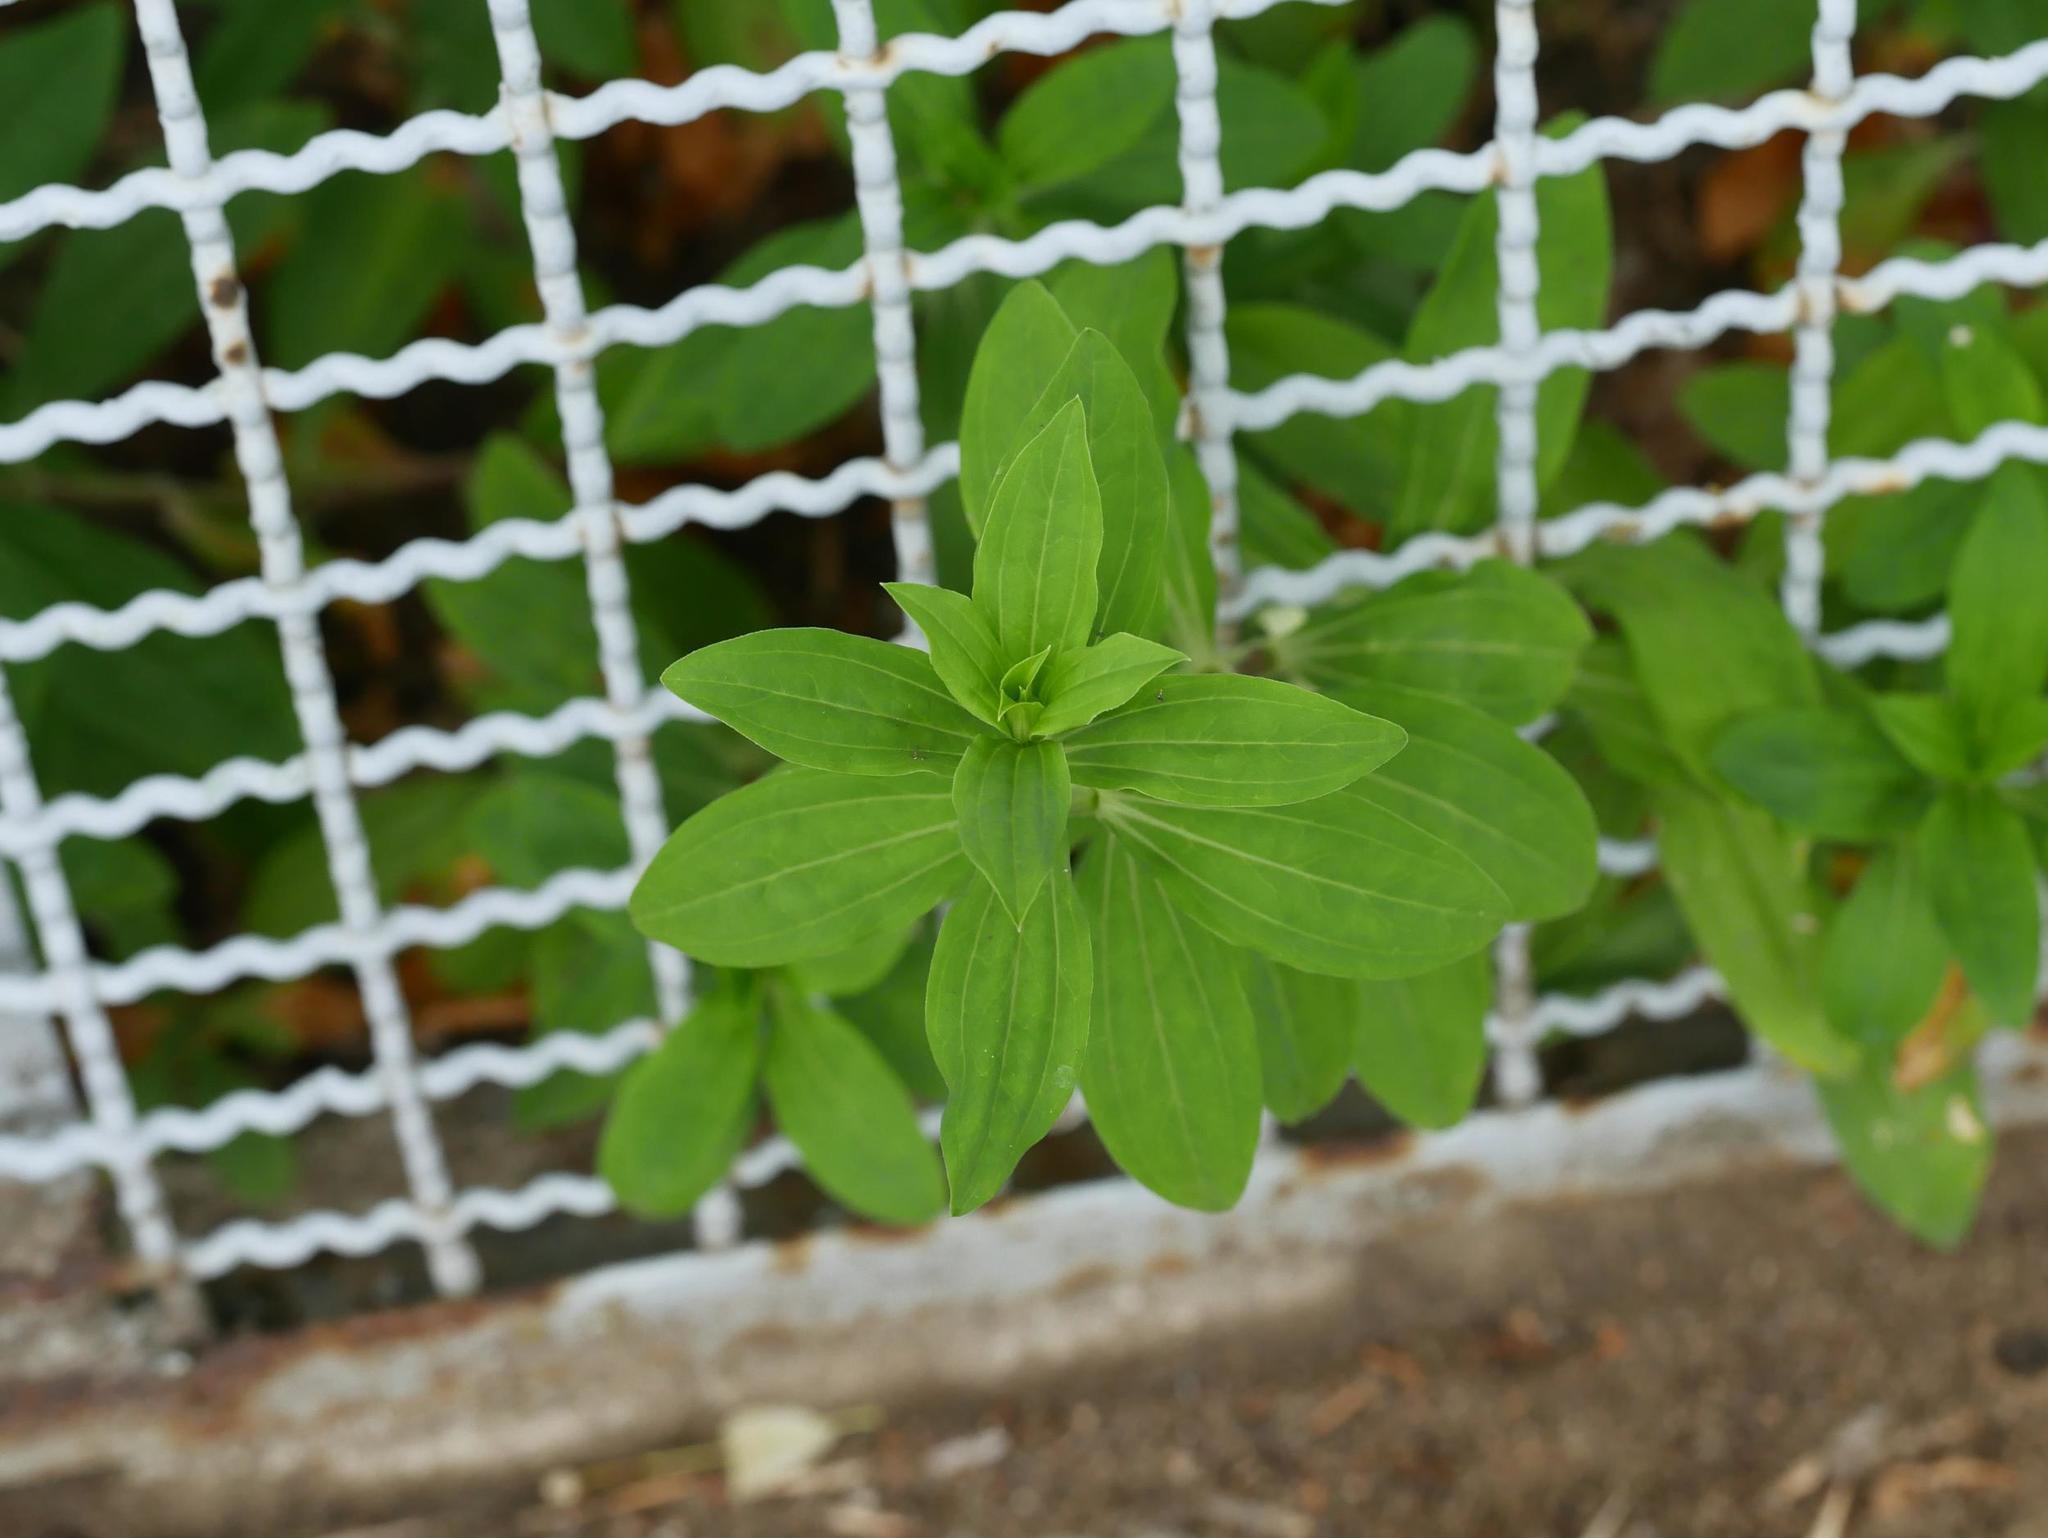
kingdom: Plantae
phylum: Tracheophyta
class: Magnoliopsida
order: Caryophyllales
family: Caryophyllaceae
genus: Saponaria
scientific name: Saponaria officinalis
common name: Soapwort
